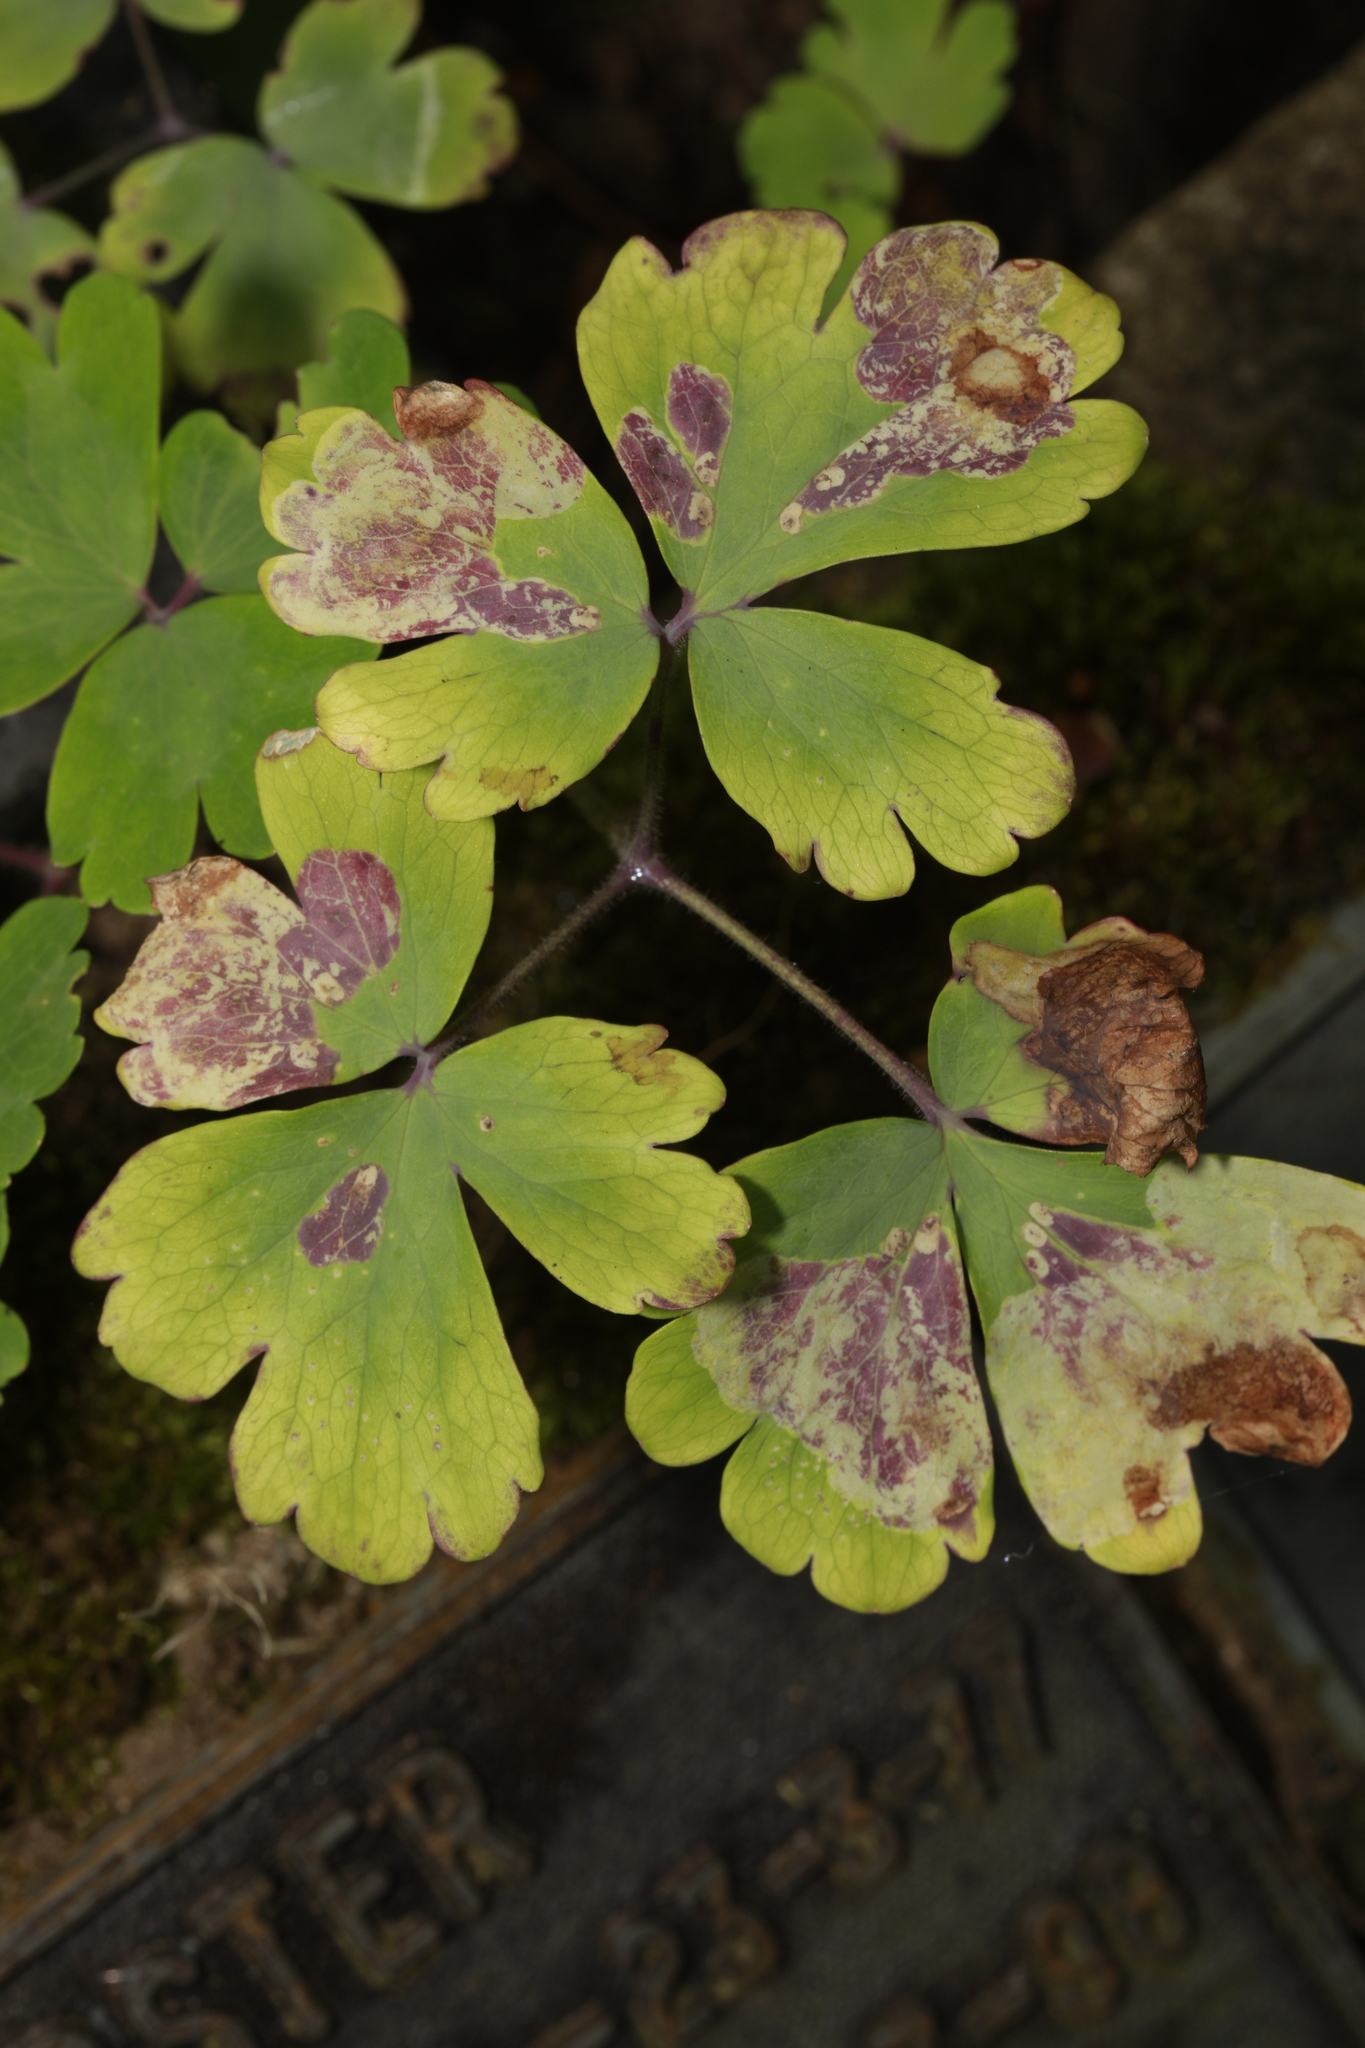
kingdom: Animalia
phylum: Arthropoda
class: Insecta
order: Diptera
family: Agromyzidae
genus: Phytomyza
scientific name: Phytomyza aquilegiae
